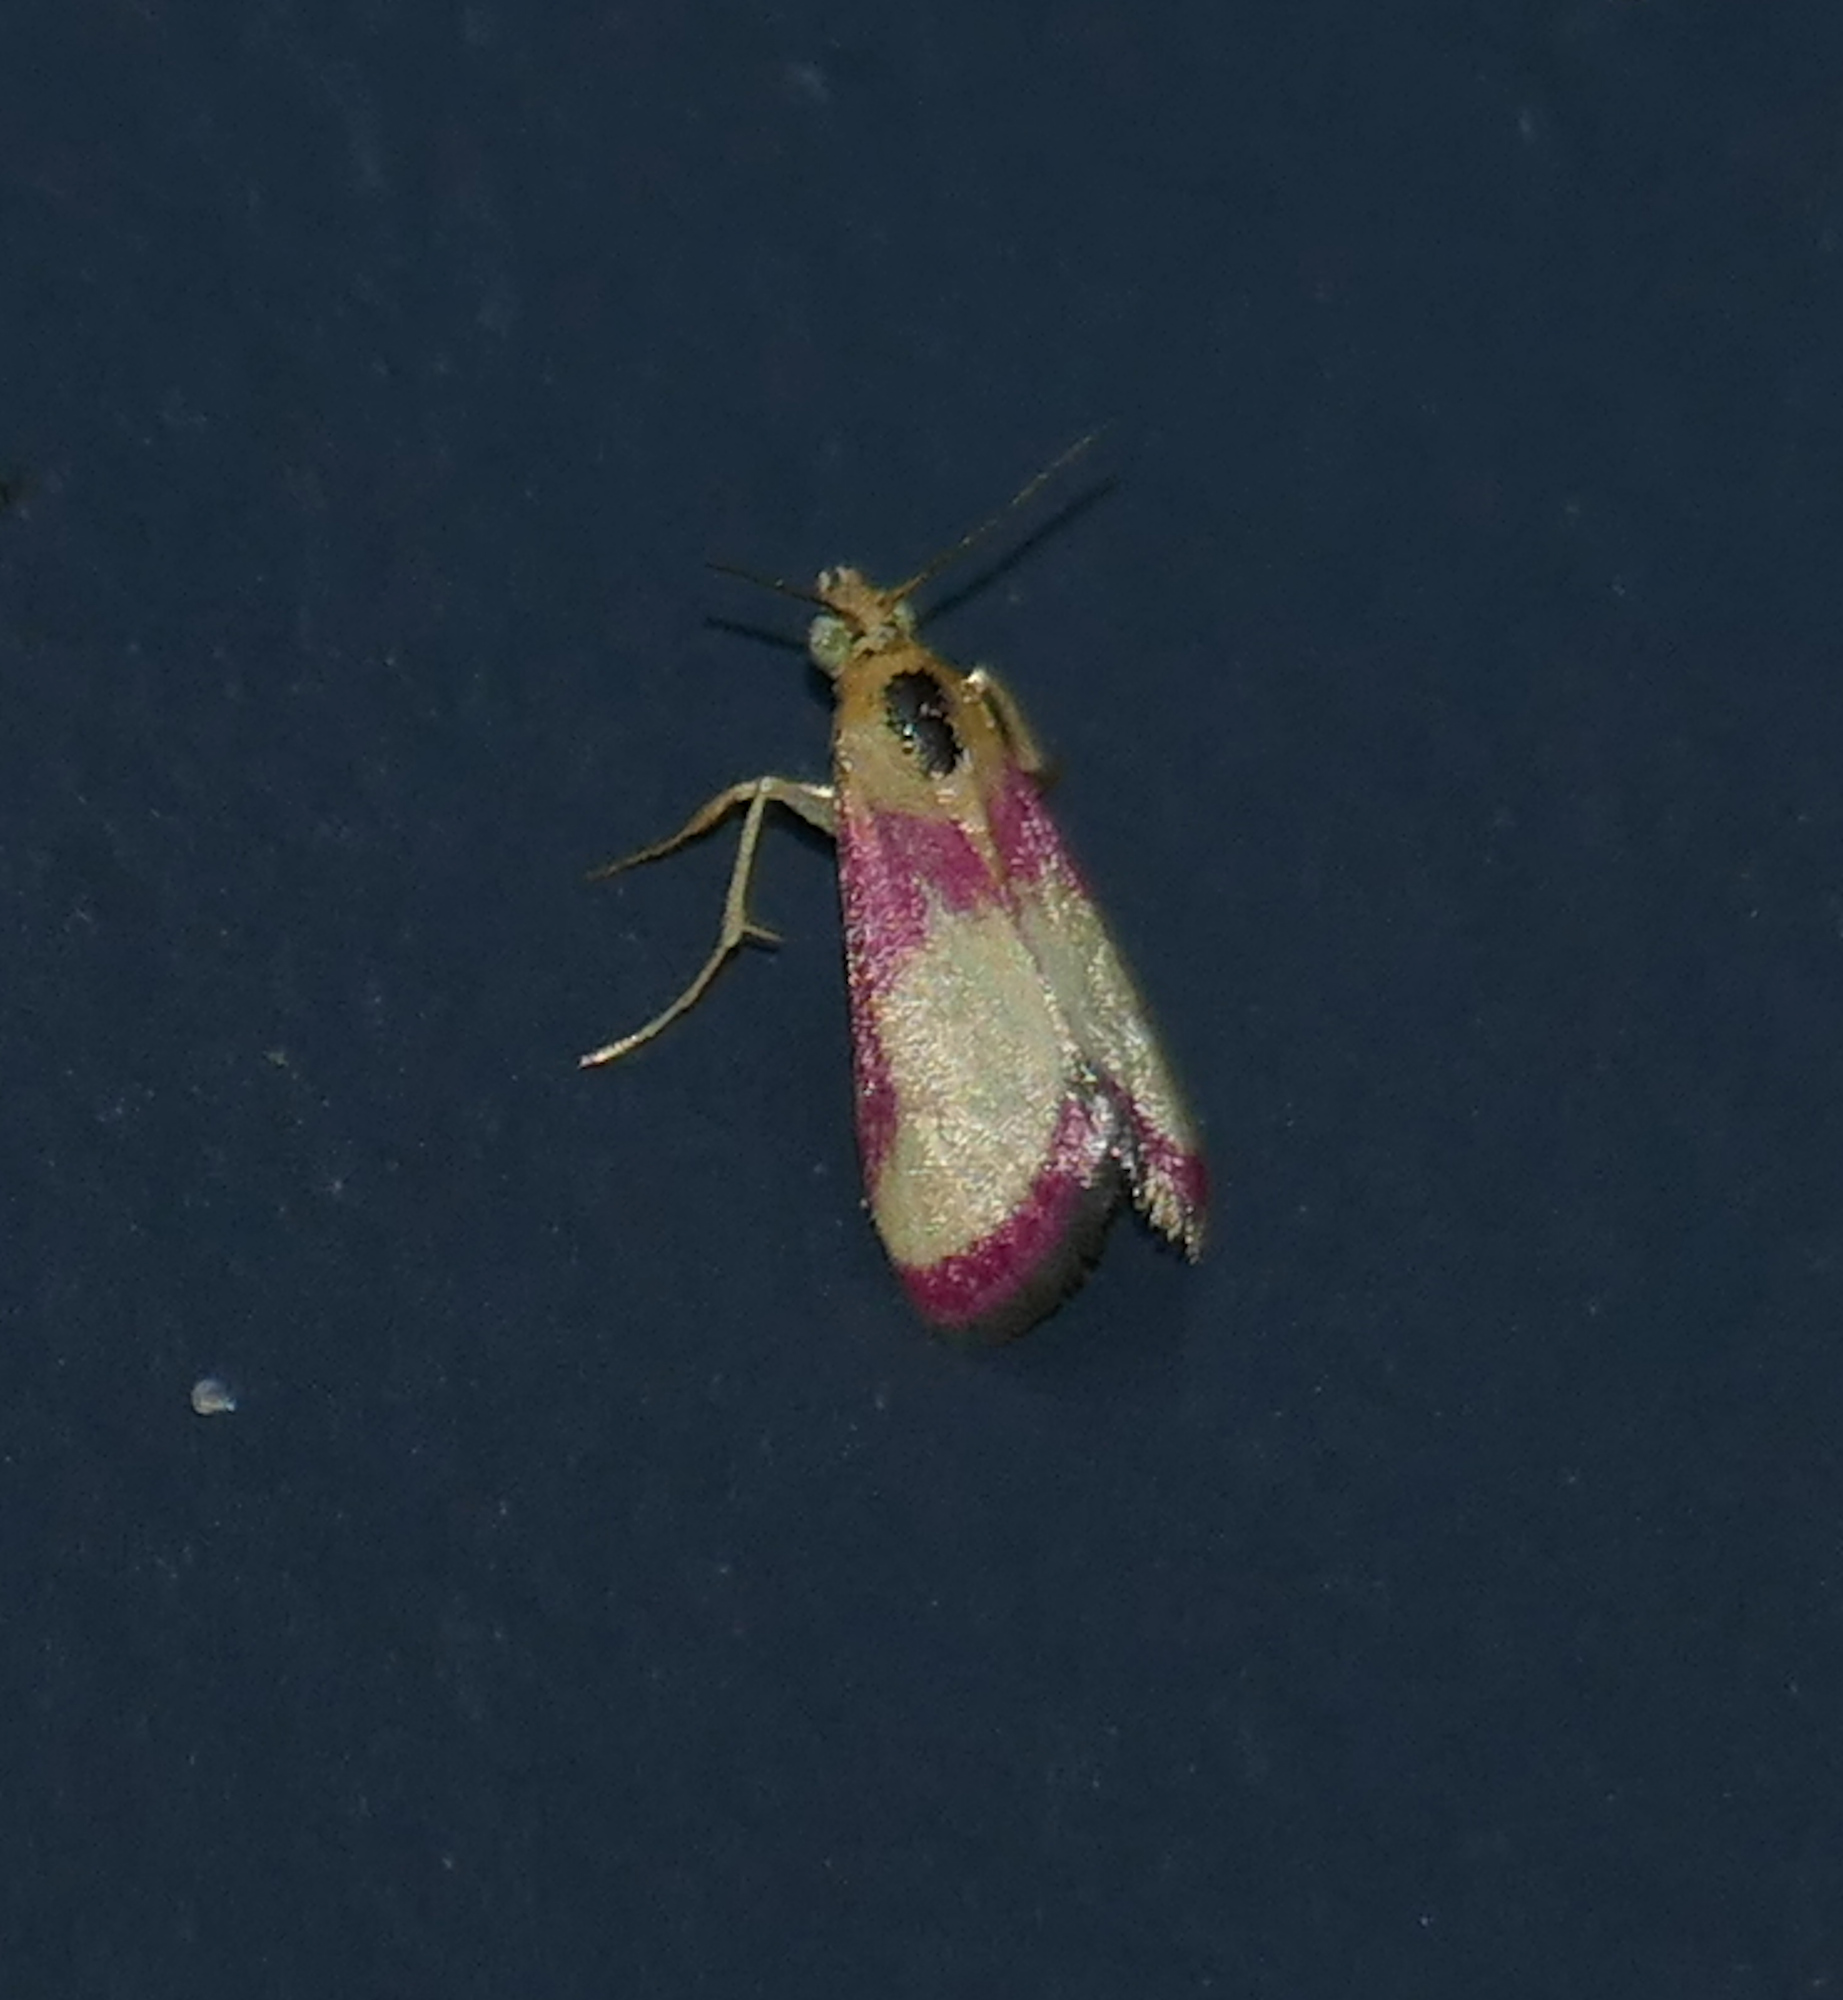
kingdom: Animalia
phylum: Arthropoda
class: Insecta
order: Lepidoptera
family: Crambidae
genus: Mojavia
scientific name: Mojavia achemonalis
